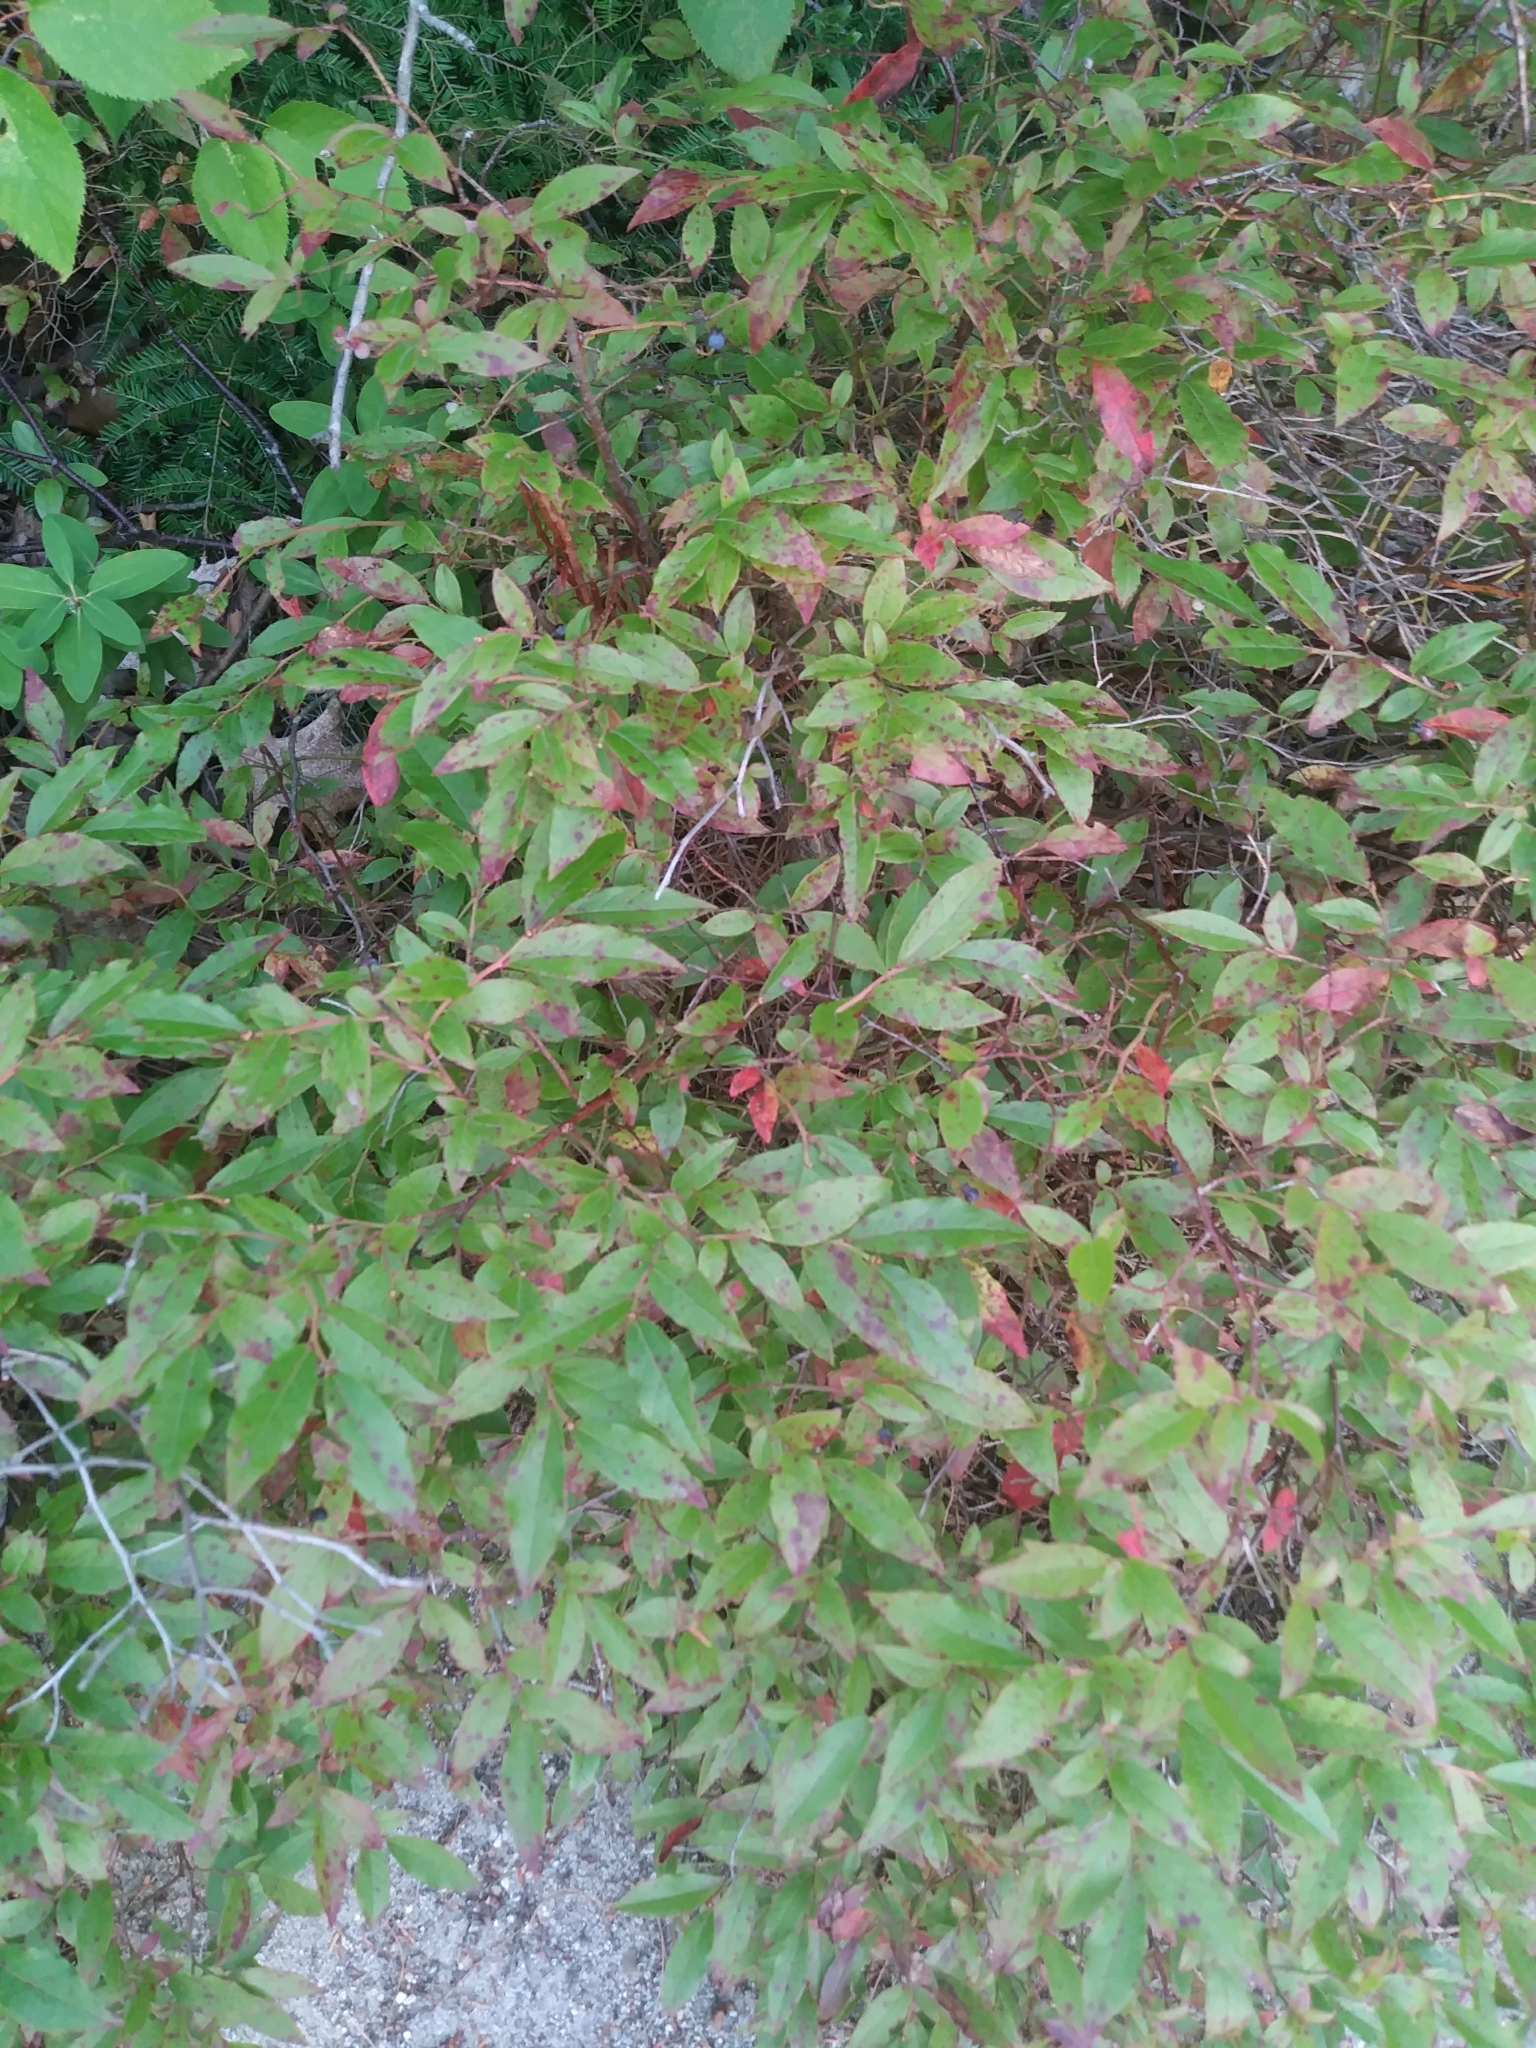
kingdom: Plantae
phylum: Tracheophyta
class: Magnoliopsida
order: Ericales
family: Ericaceae
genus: Vaccinium
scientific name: Vaccinium angustifolium
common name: Early lowbush blueberry
